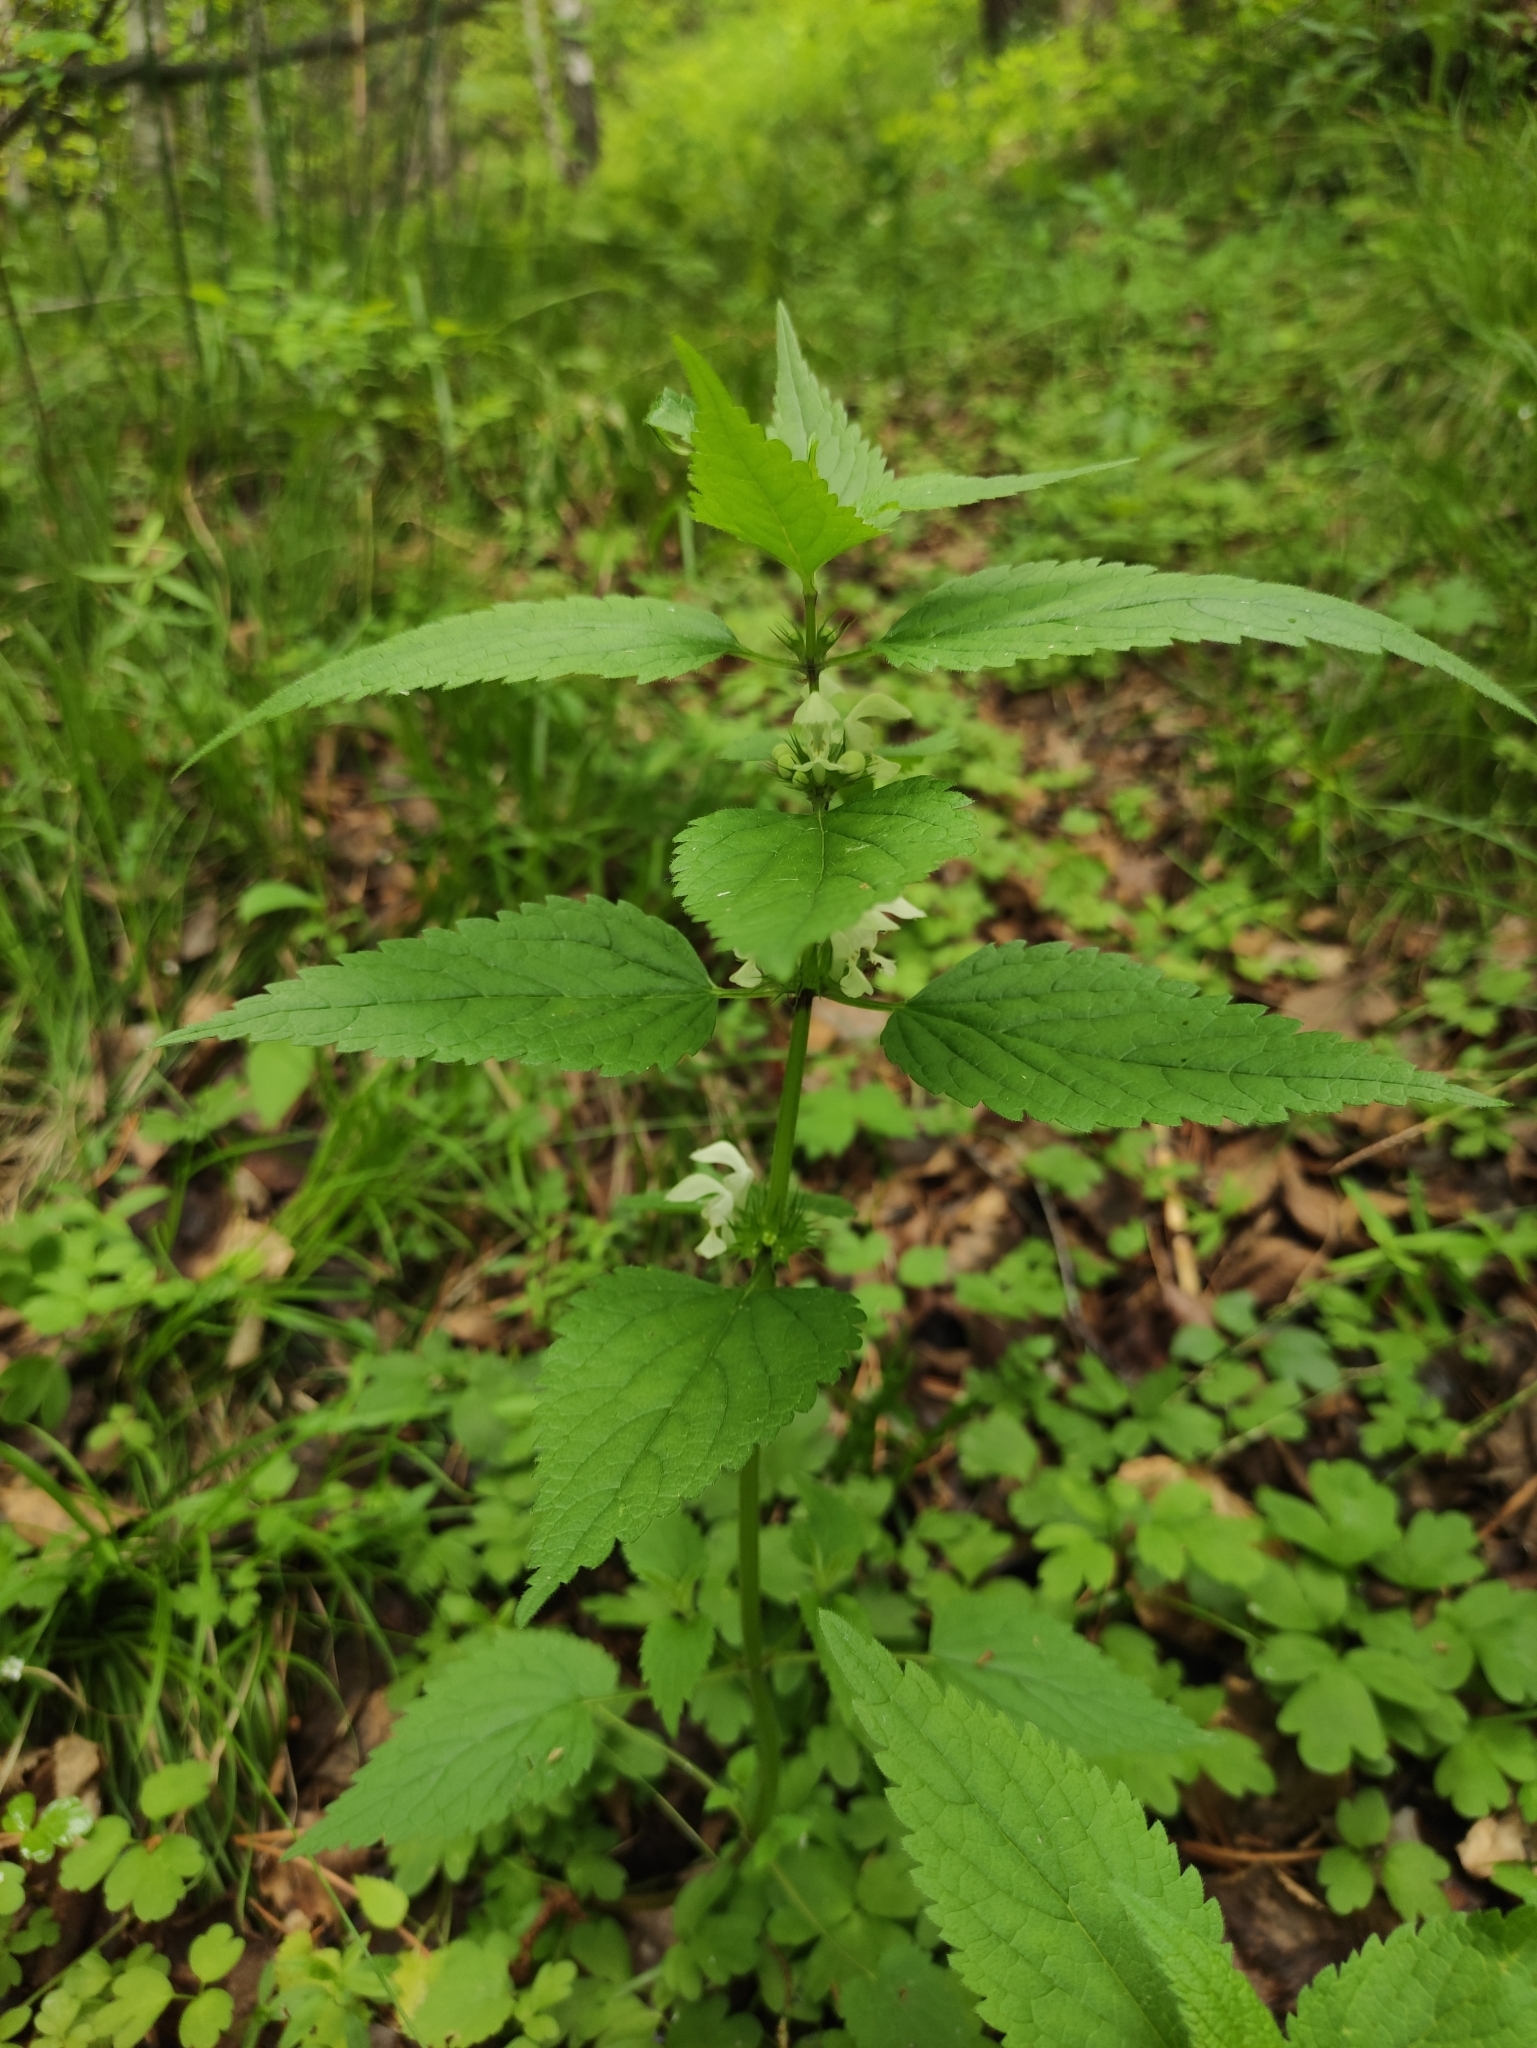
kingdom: Plantae
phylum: Tracheophyta
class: Magnoliopsida
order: Lamiales
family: Lamiaceae
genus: Lamium
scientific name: Lamium album
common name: White dead-nettle
